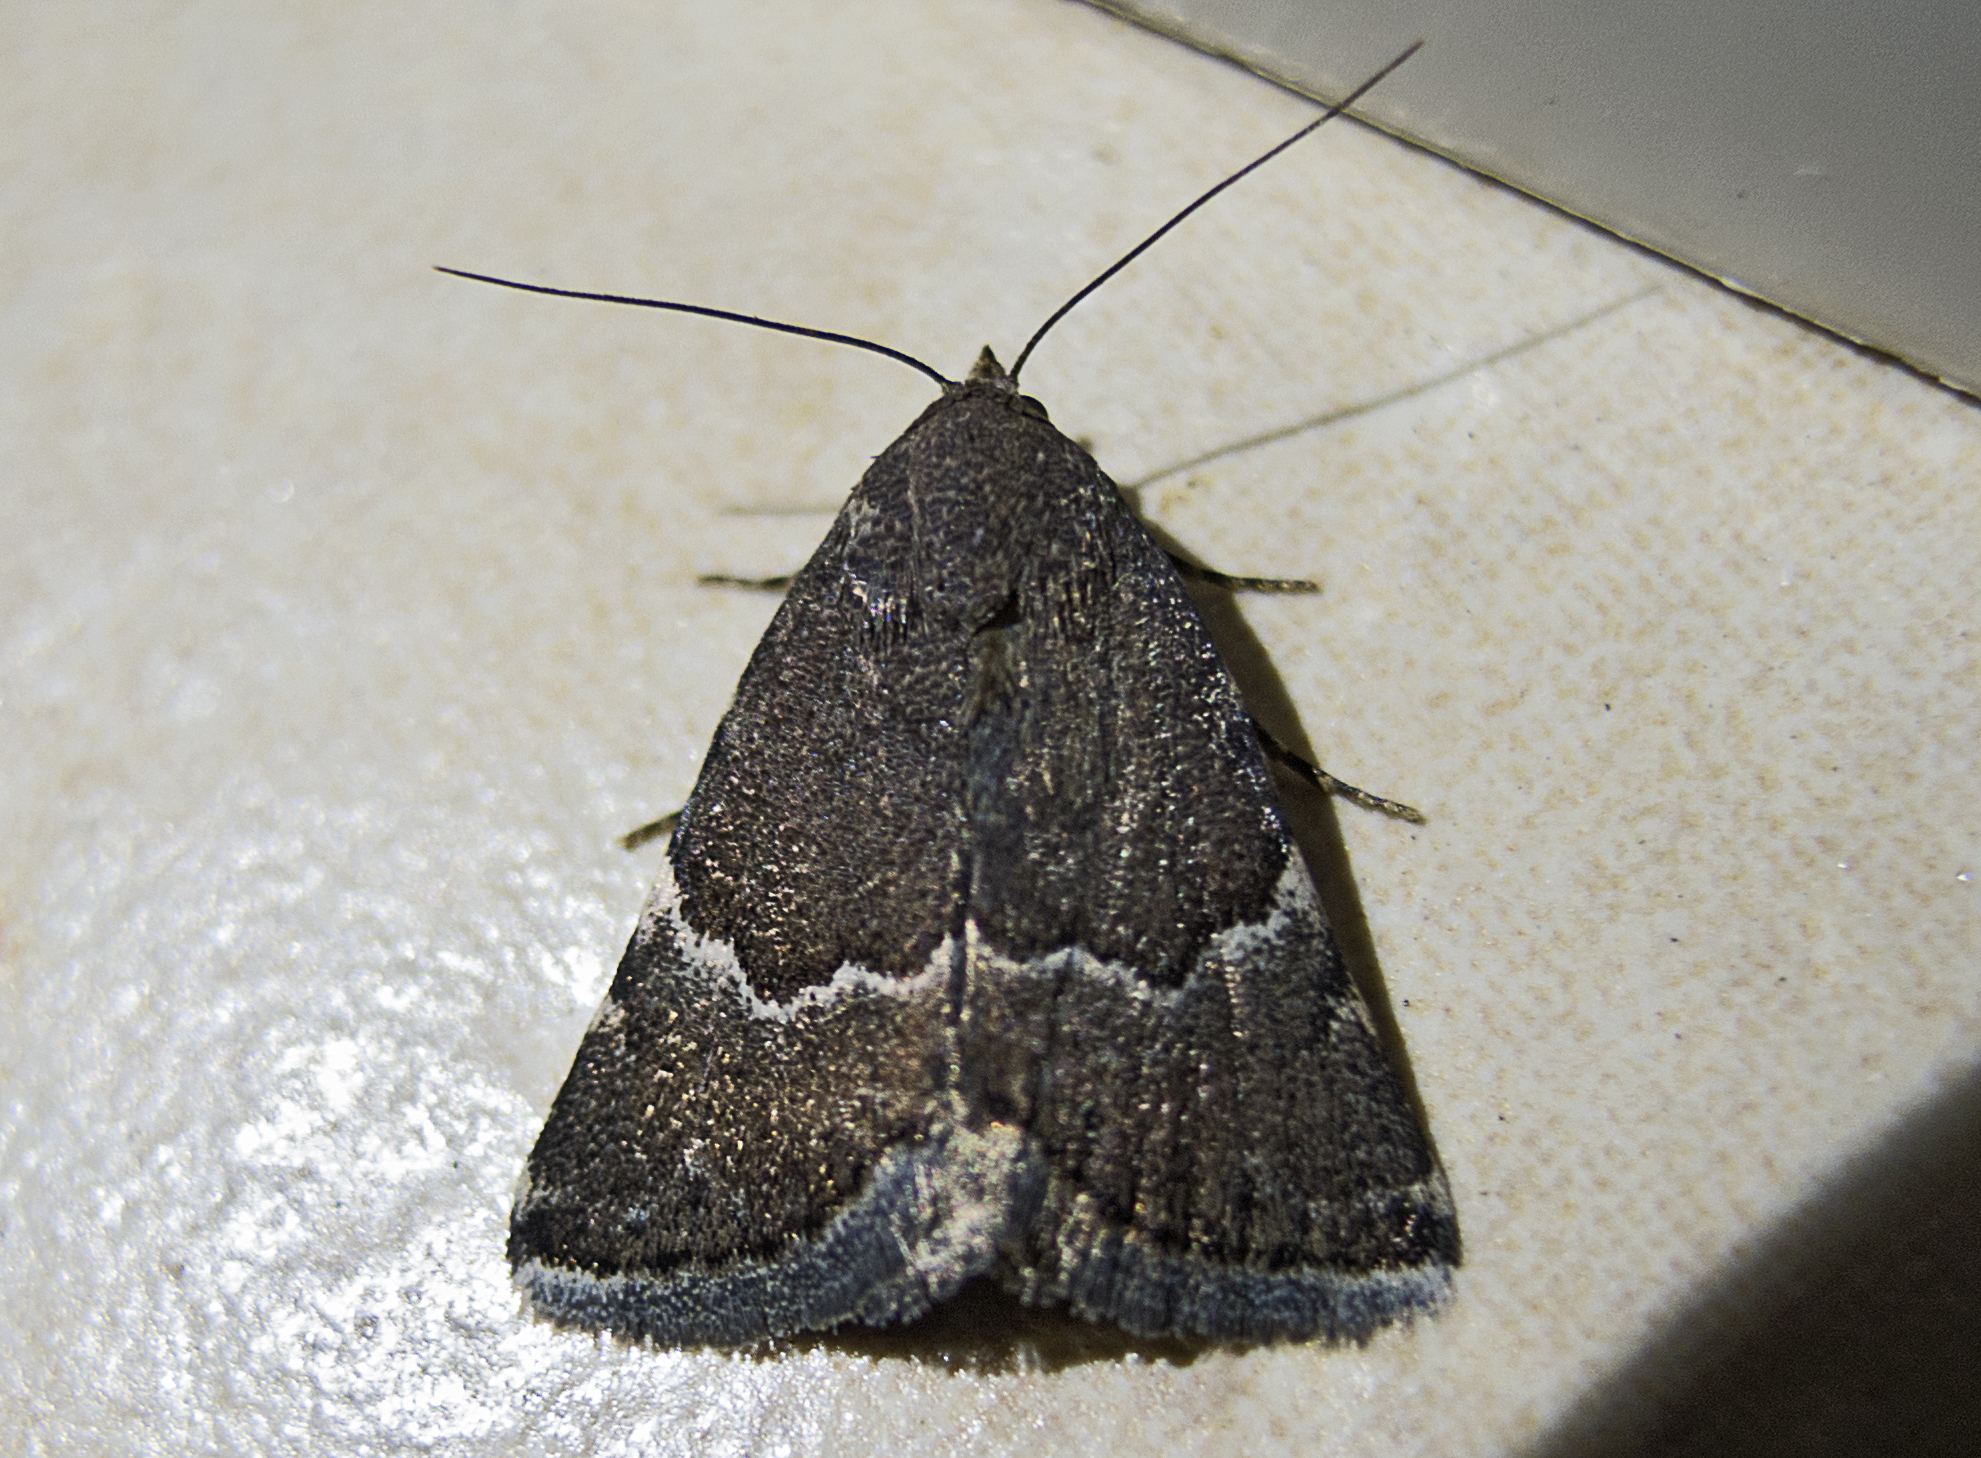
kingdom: Animalia
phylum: Arthropoda
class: Insecta
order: Lepidoptera
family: Noctuidae
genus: Odice
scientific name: Odice suava
